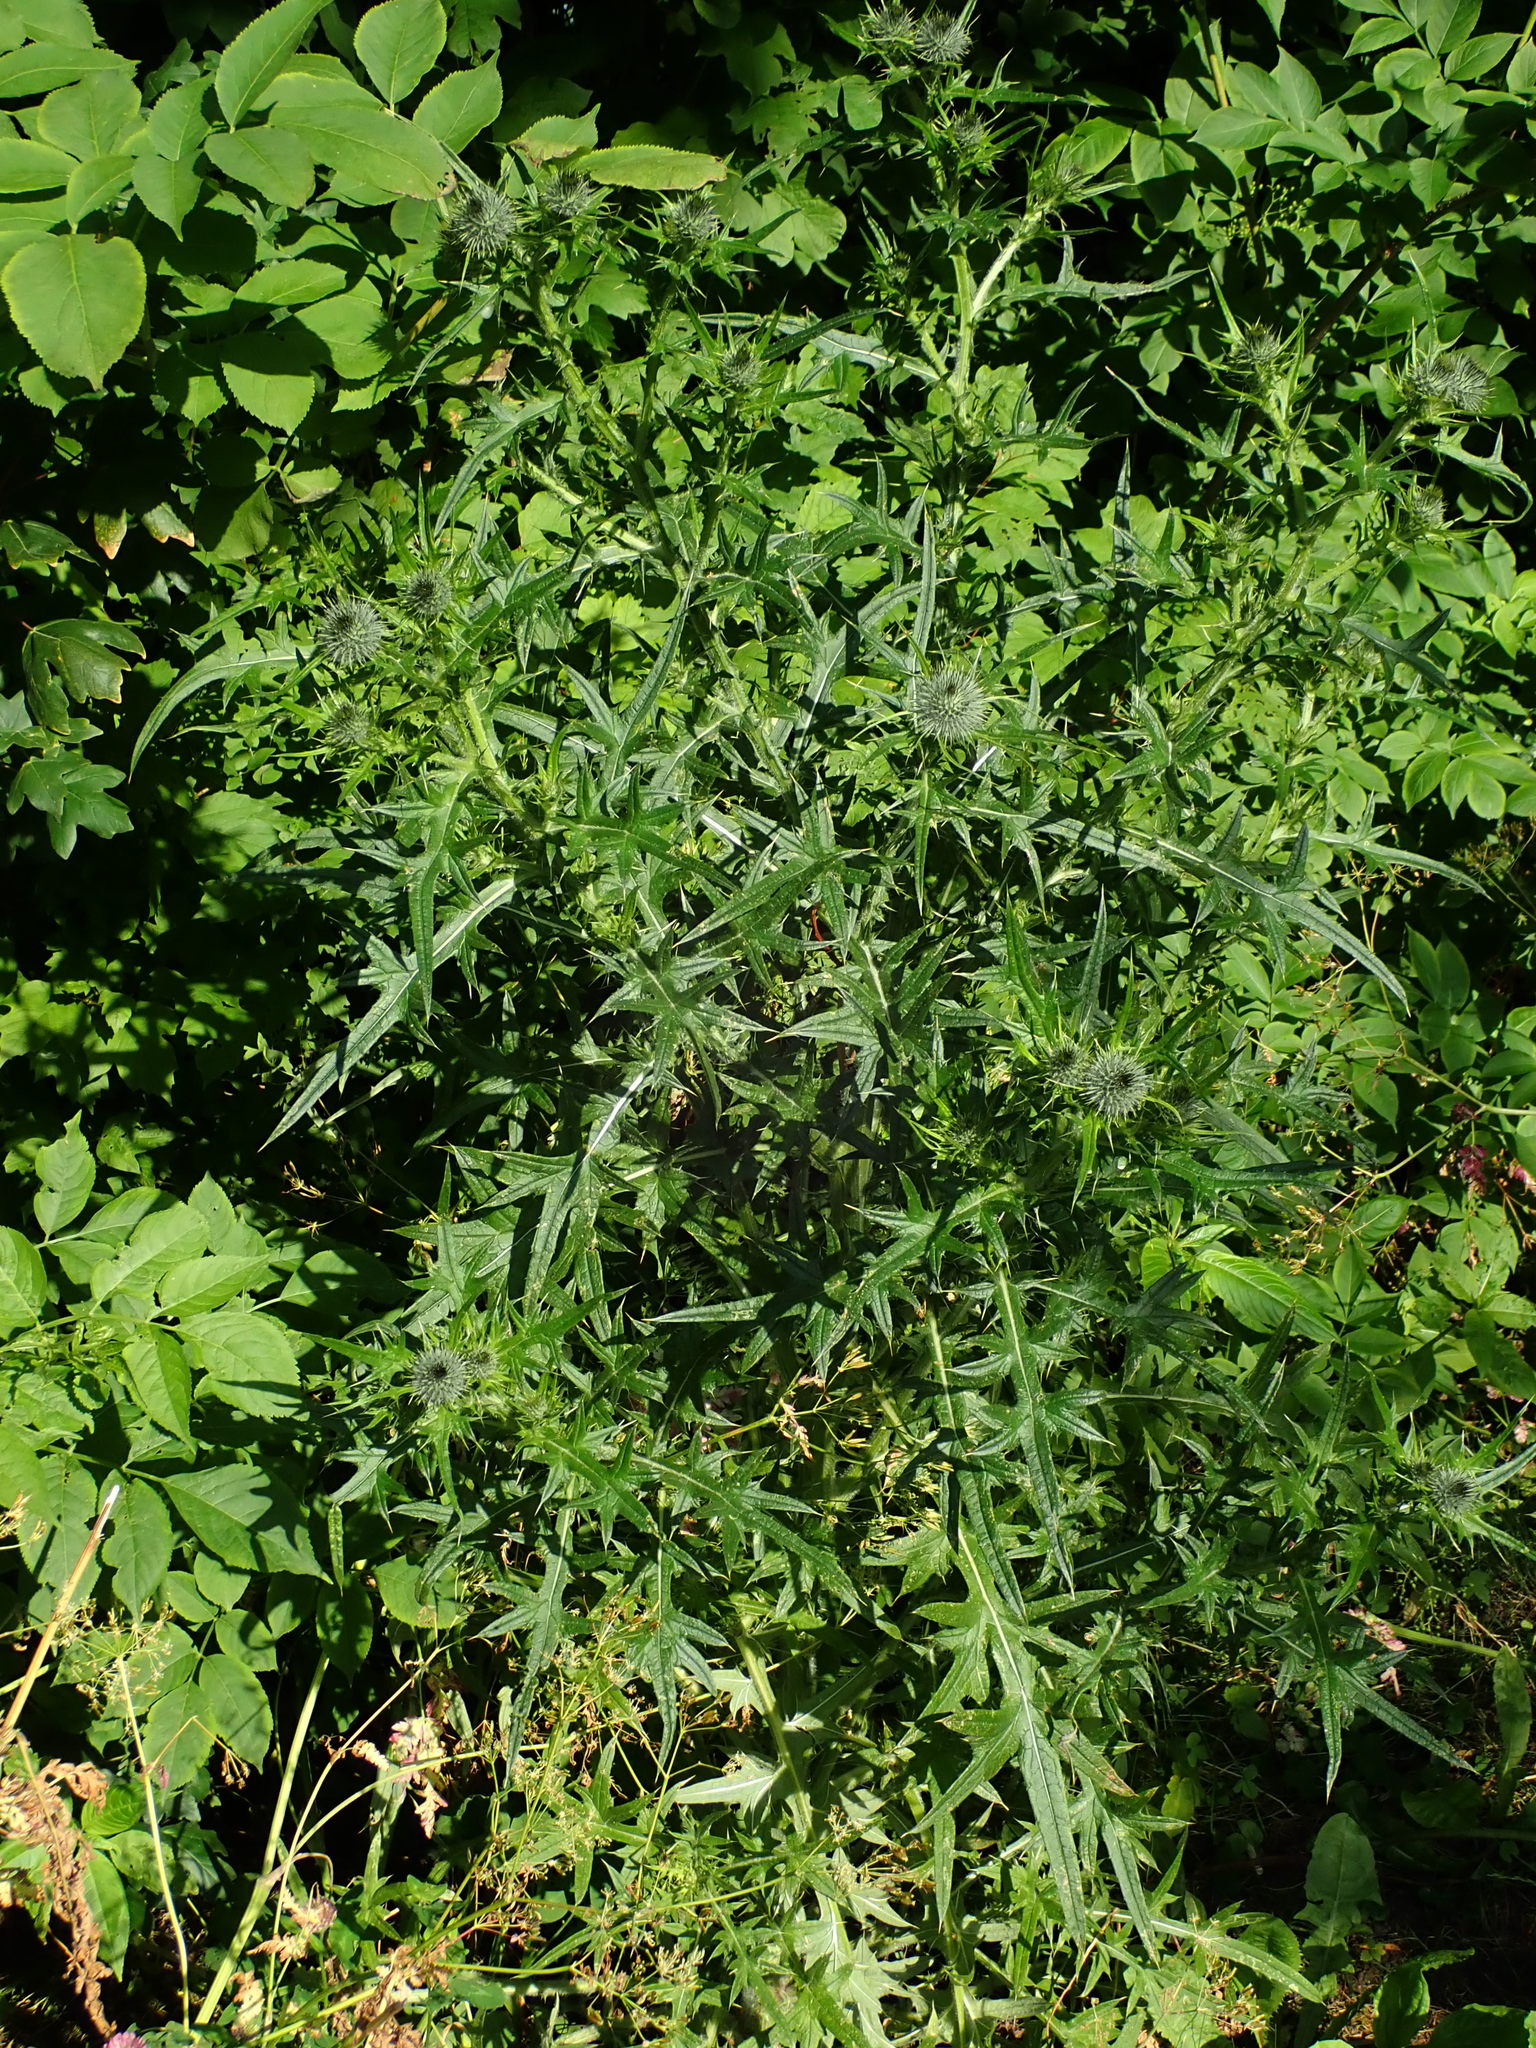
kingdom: Plantae
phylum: Tracheophyta
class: Magnoliopsida
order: Asterales
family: Asteraceae
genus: Cirsium
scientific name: Cirsium vulgare
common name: Bull thistle
